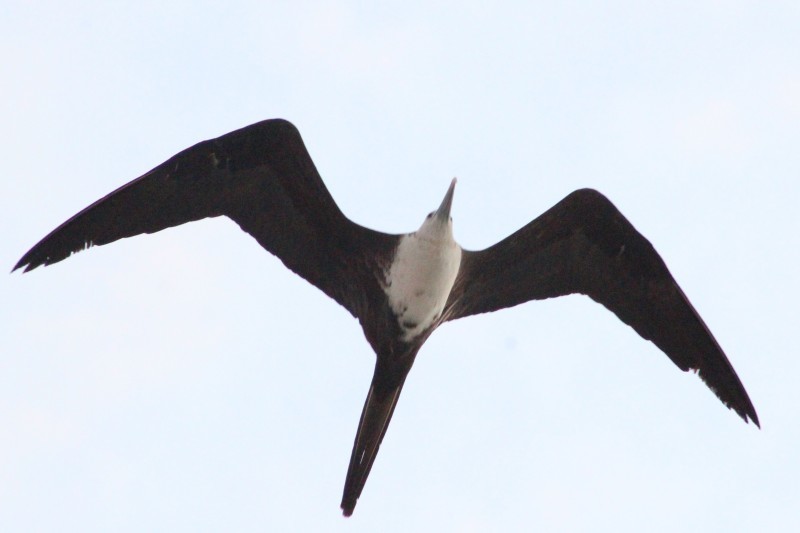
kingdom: Animalia
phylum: Chordata
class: Aves
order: Suliformes
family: Fregatidae
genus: Fregata
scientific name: Fregata magnificens
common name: Magnificent frigatebird
